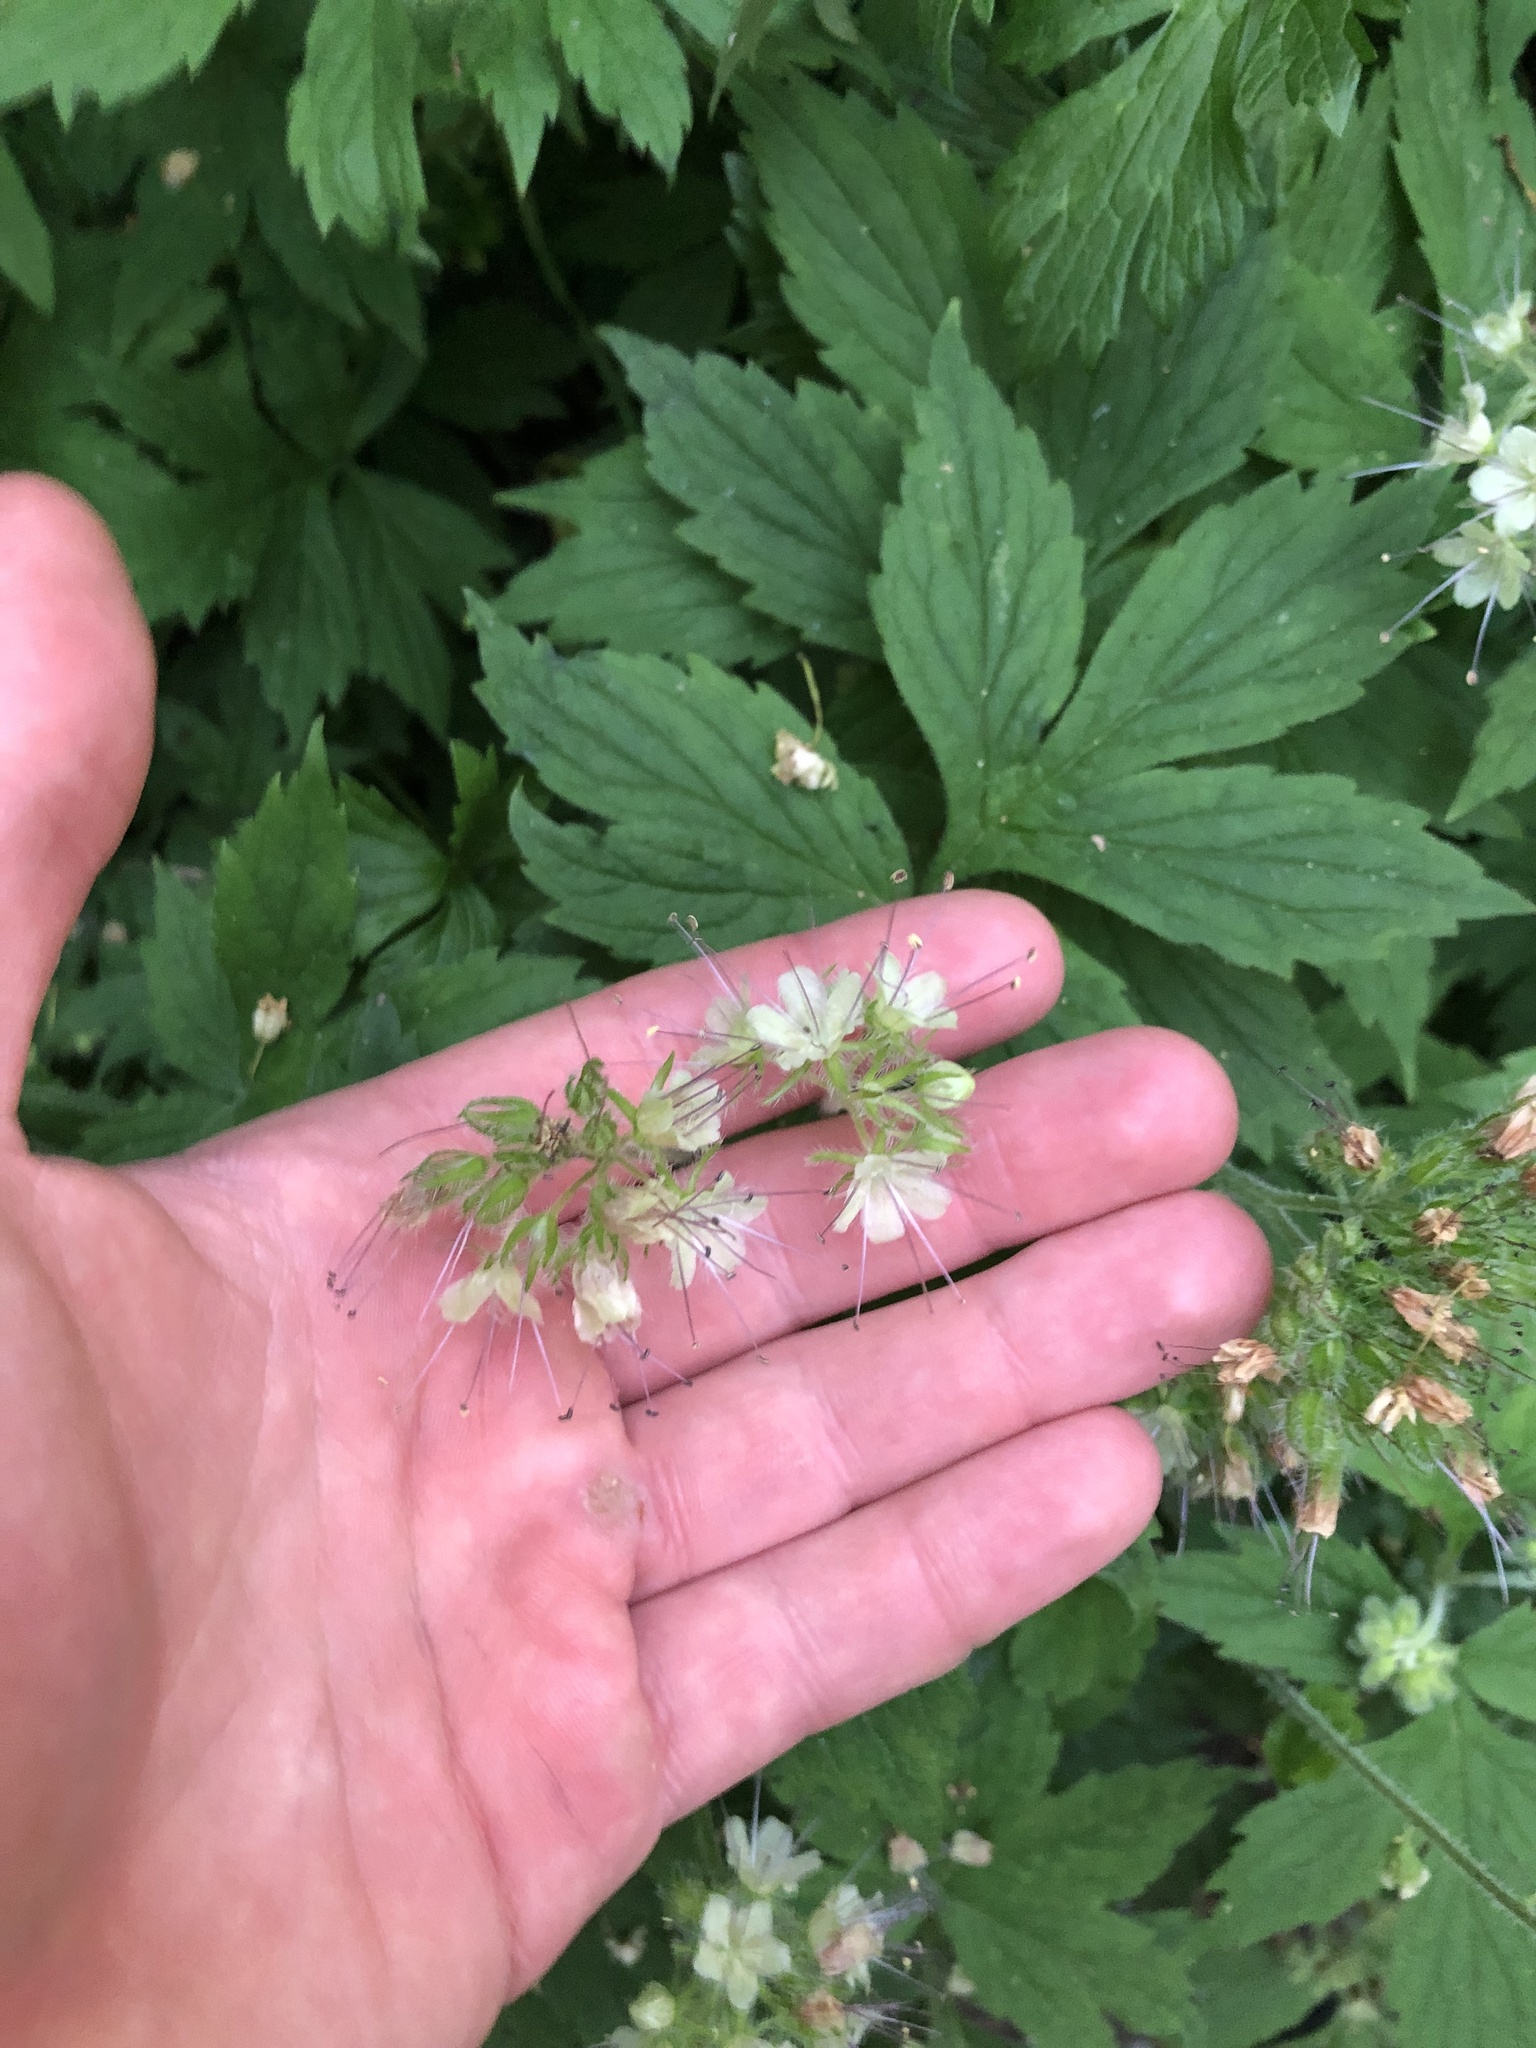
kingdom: Plantae
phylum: Tracheophyta
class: Magnoliopsida
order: Boraginales
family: Hydrophyllaceae
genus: Hydrophyllum
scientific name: Hydrophyllum tenuipes
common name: Pacific waterleaf
